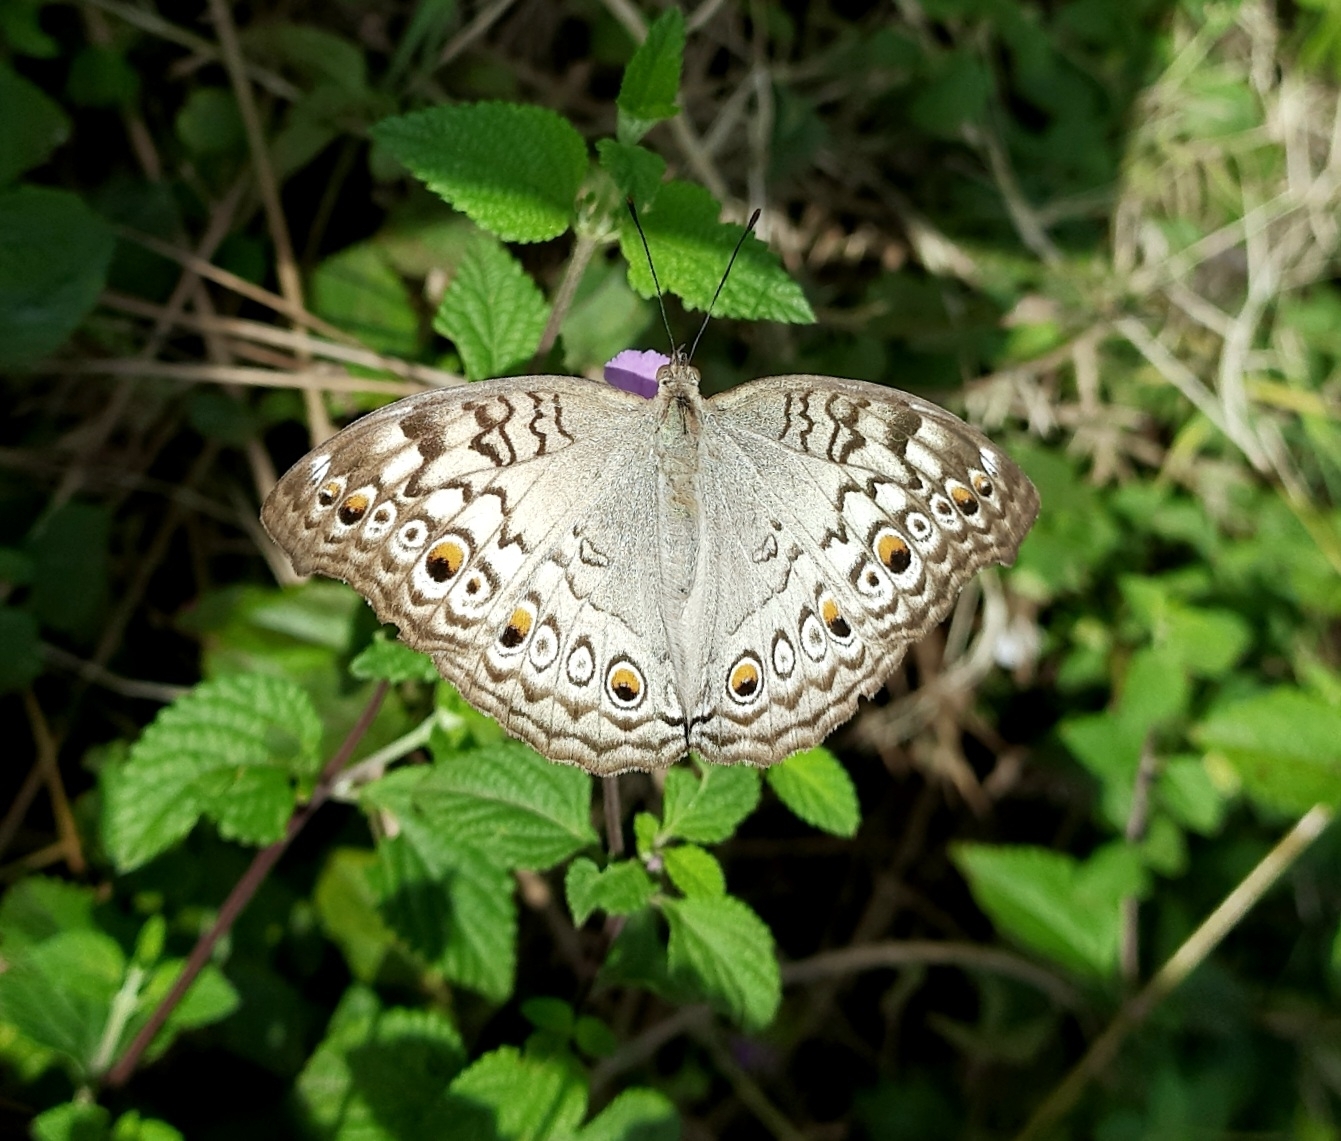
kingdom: Animalia
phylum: Arthropoda
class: Insecta
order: Lepidoptera
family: Nymphalidae
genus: Junonia
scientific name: Junonia atlites
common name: Grey pansy
